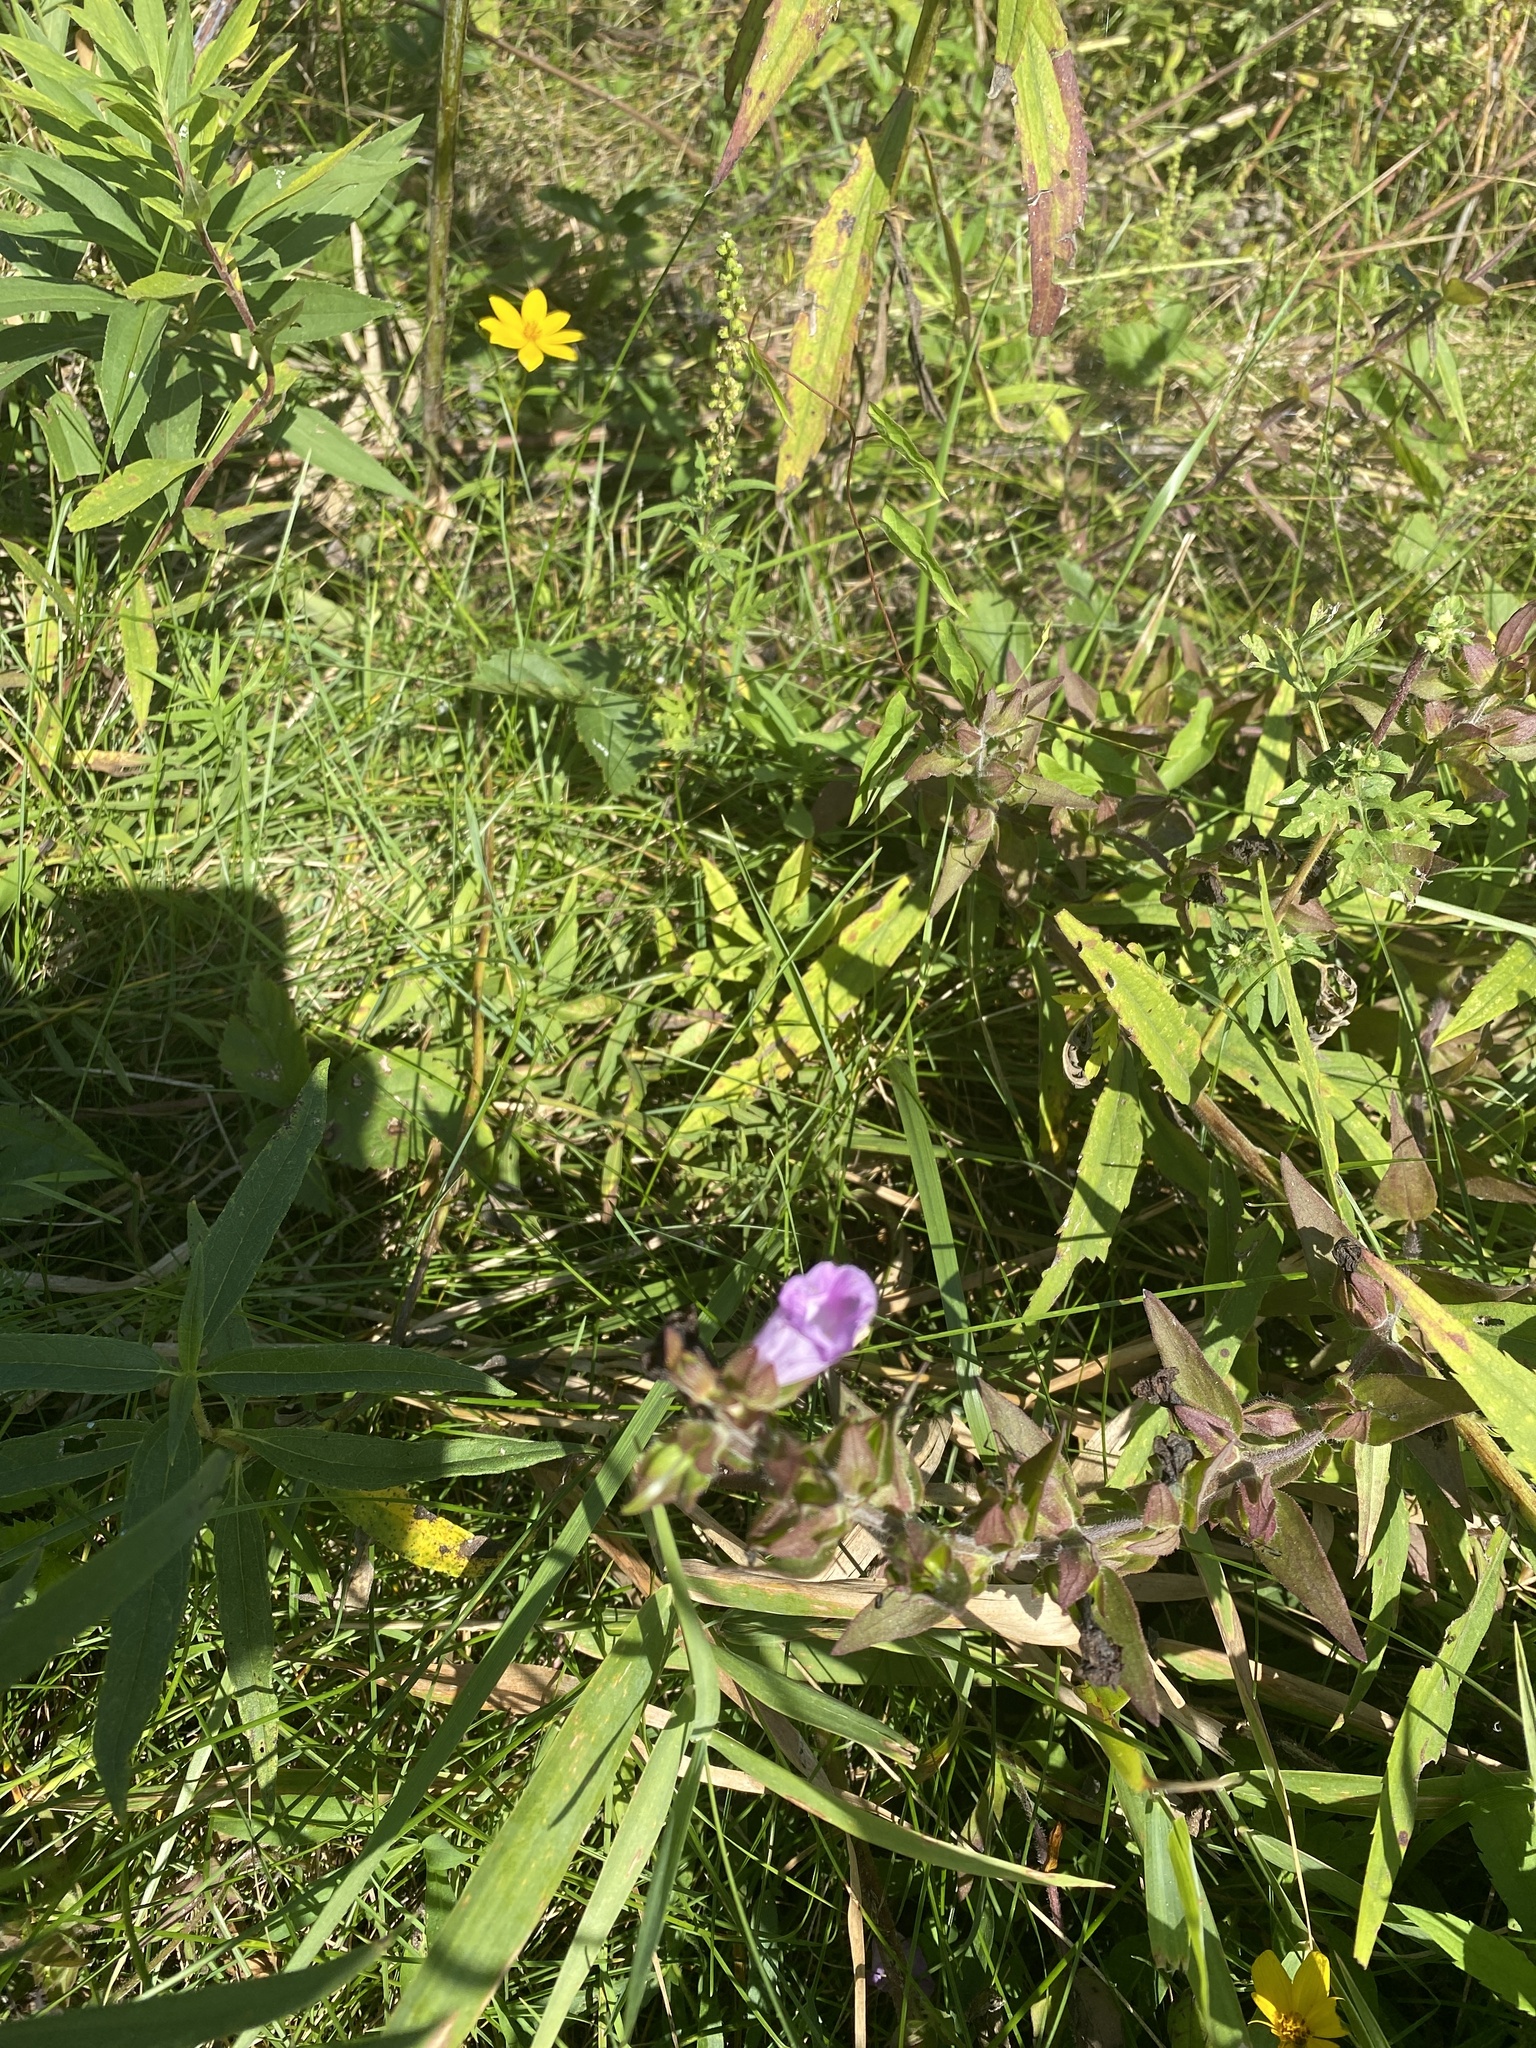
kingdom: Plantae
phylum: Tracheophyta
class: Magnoliopsida
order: Lamiales
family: Orobanchaceae
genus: Agalinis
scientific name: Agalinis auriculata
